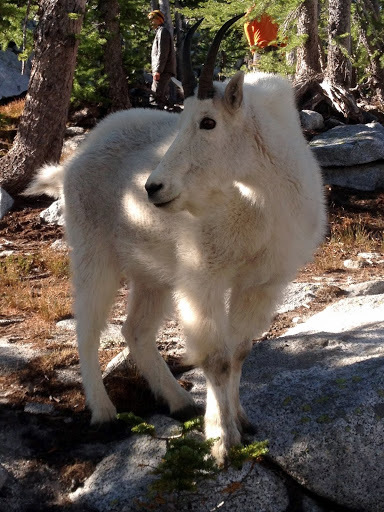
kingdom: Animalia
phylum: Chordata
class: Mammalia
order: Artiodactyla
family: Bovidae
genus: Oreamnos
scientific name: Oreamnos americanus
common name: Mountain goat
